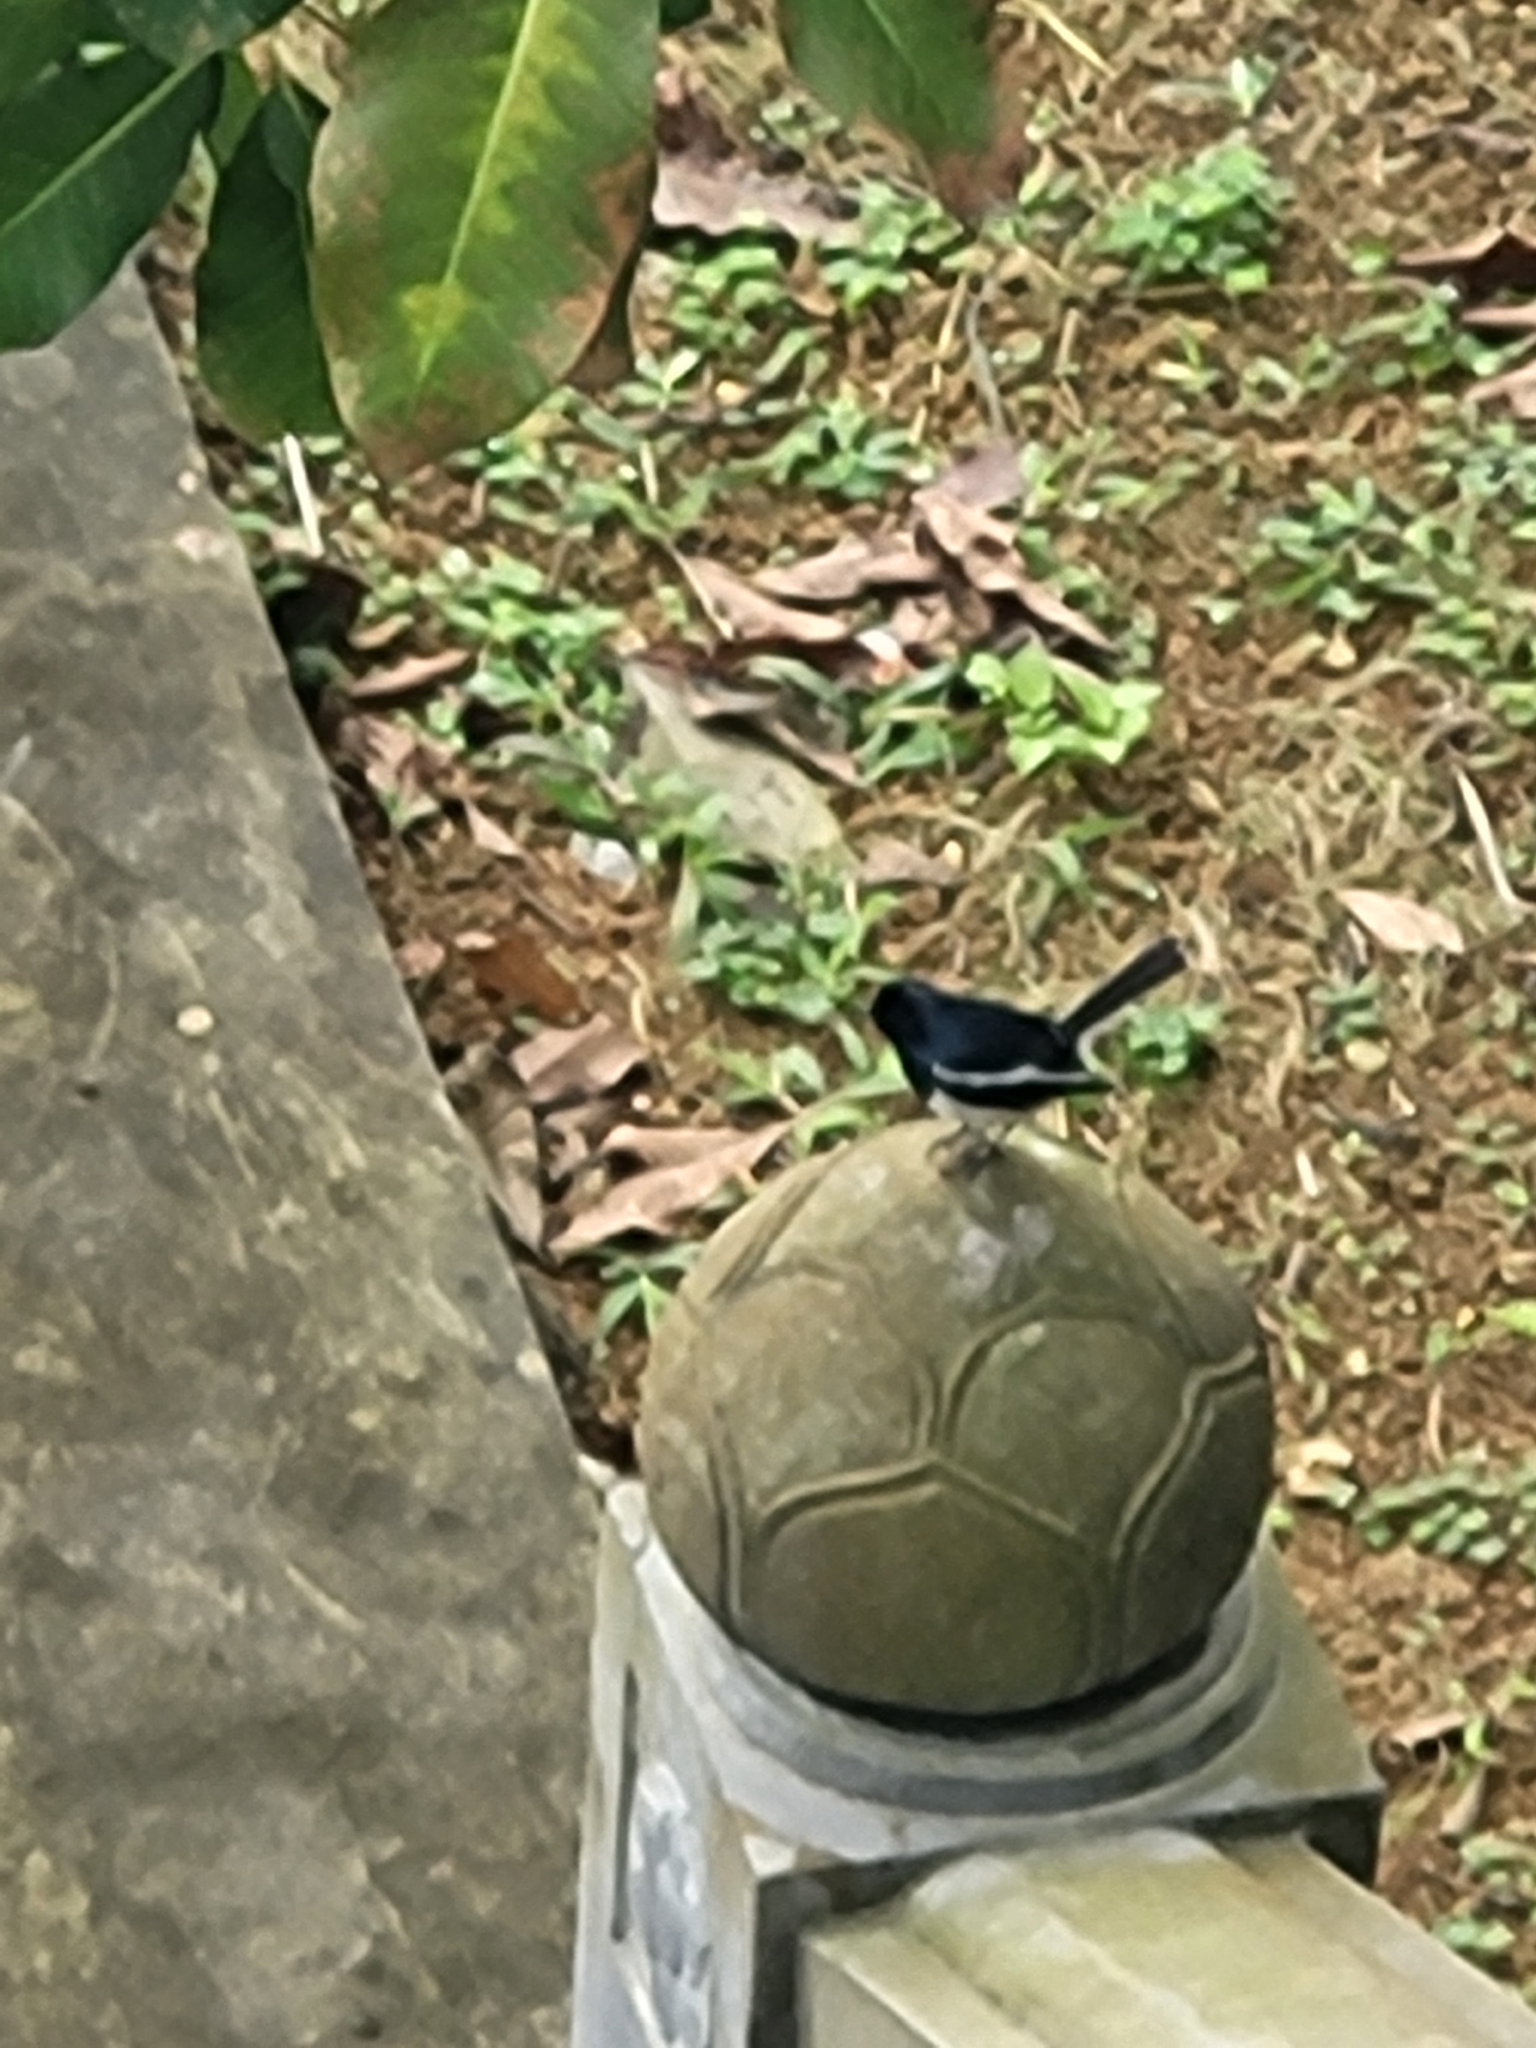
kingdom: Animalia
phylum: Chordata
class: Aves
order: Passeriformes
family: Muscicapidae
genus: Copsychus
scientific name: Copsychus saularis
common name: Oriental magpie-robin
